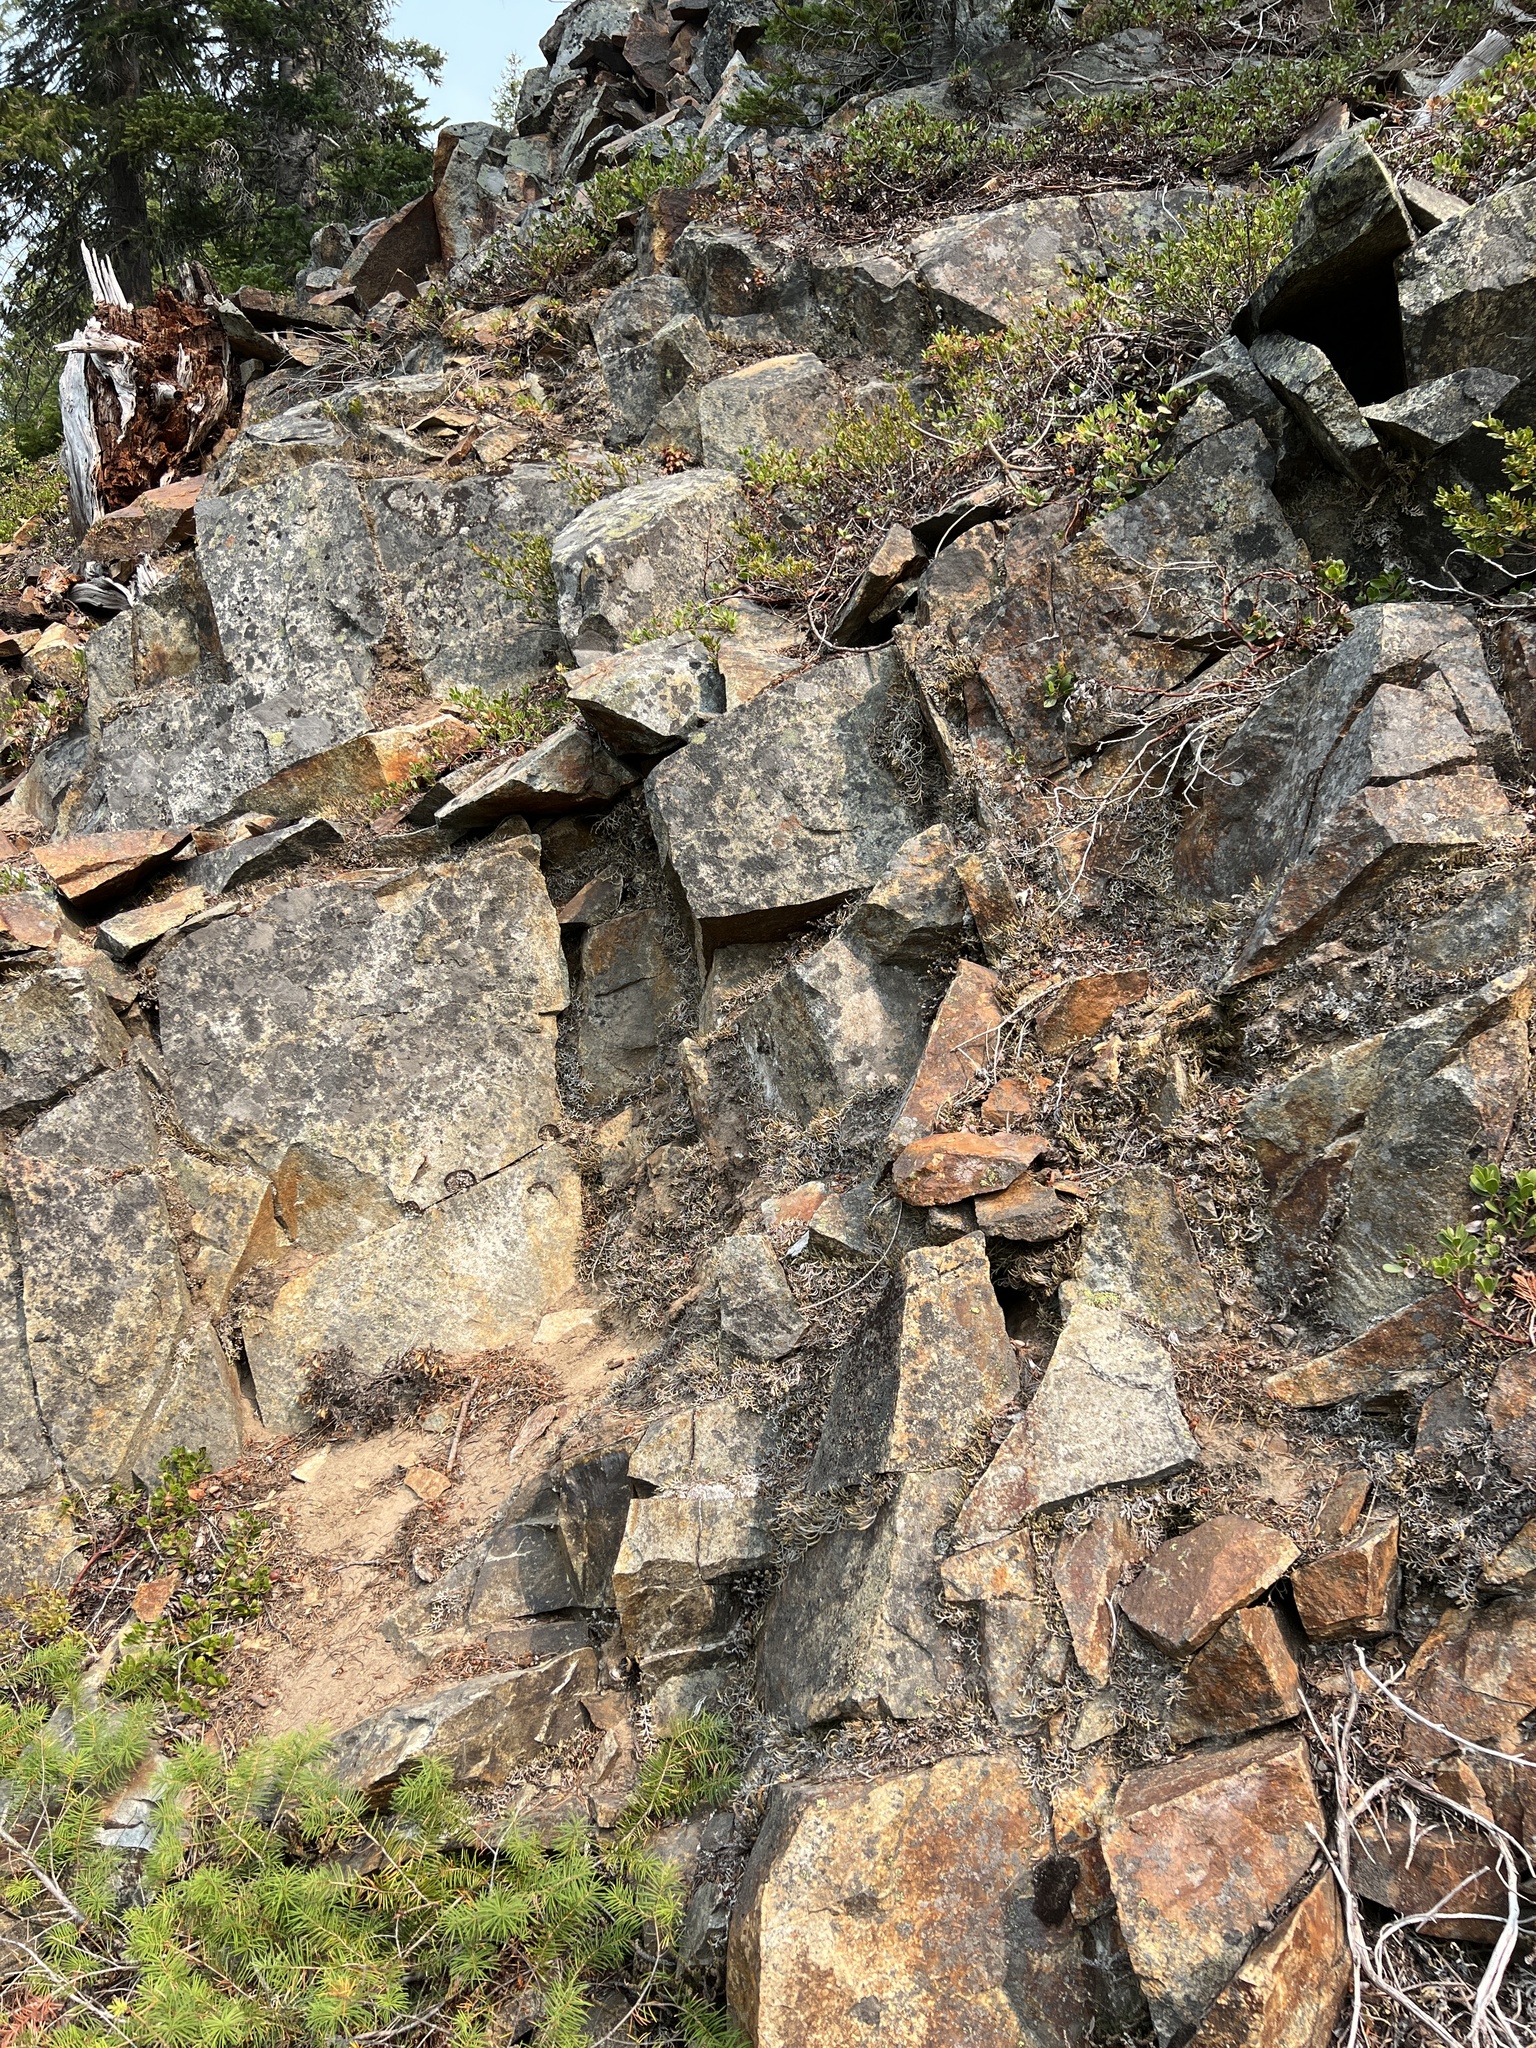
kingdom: Plantae
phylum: Tracheophyta
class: Polypodiopsida
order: Polypodiales
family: Pteridaceae
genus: Myriopteris
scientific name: Myriopteris gracillima
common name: Lace fern
